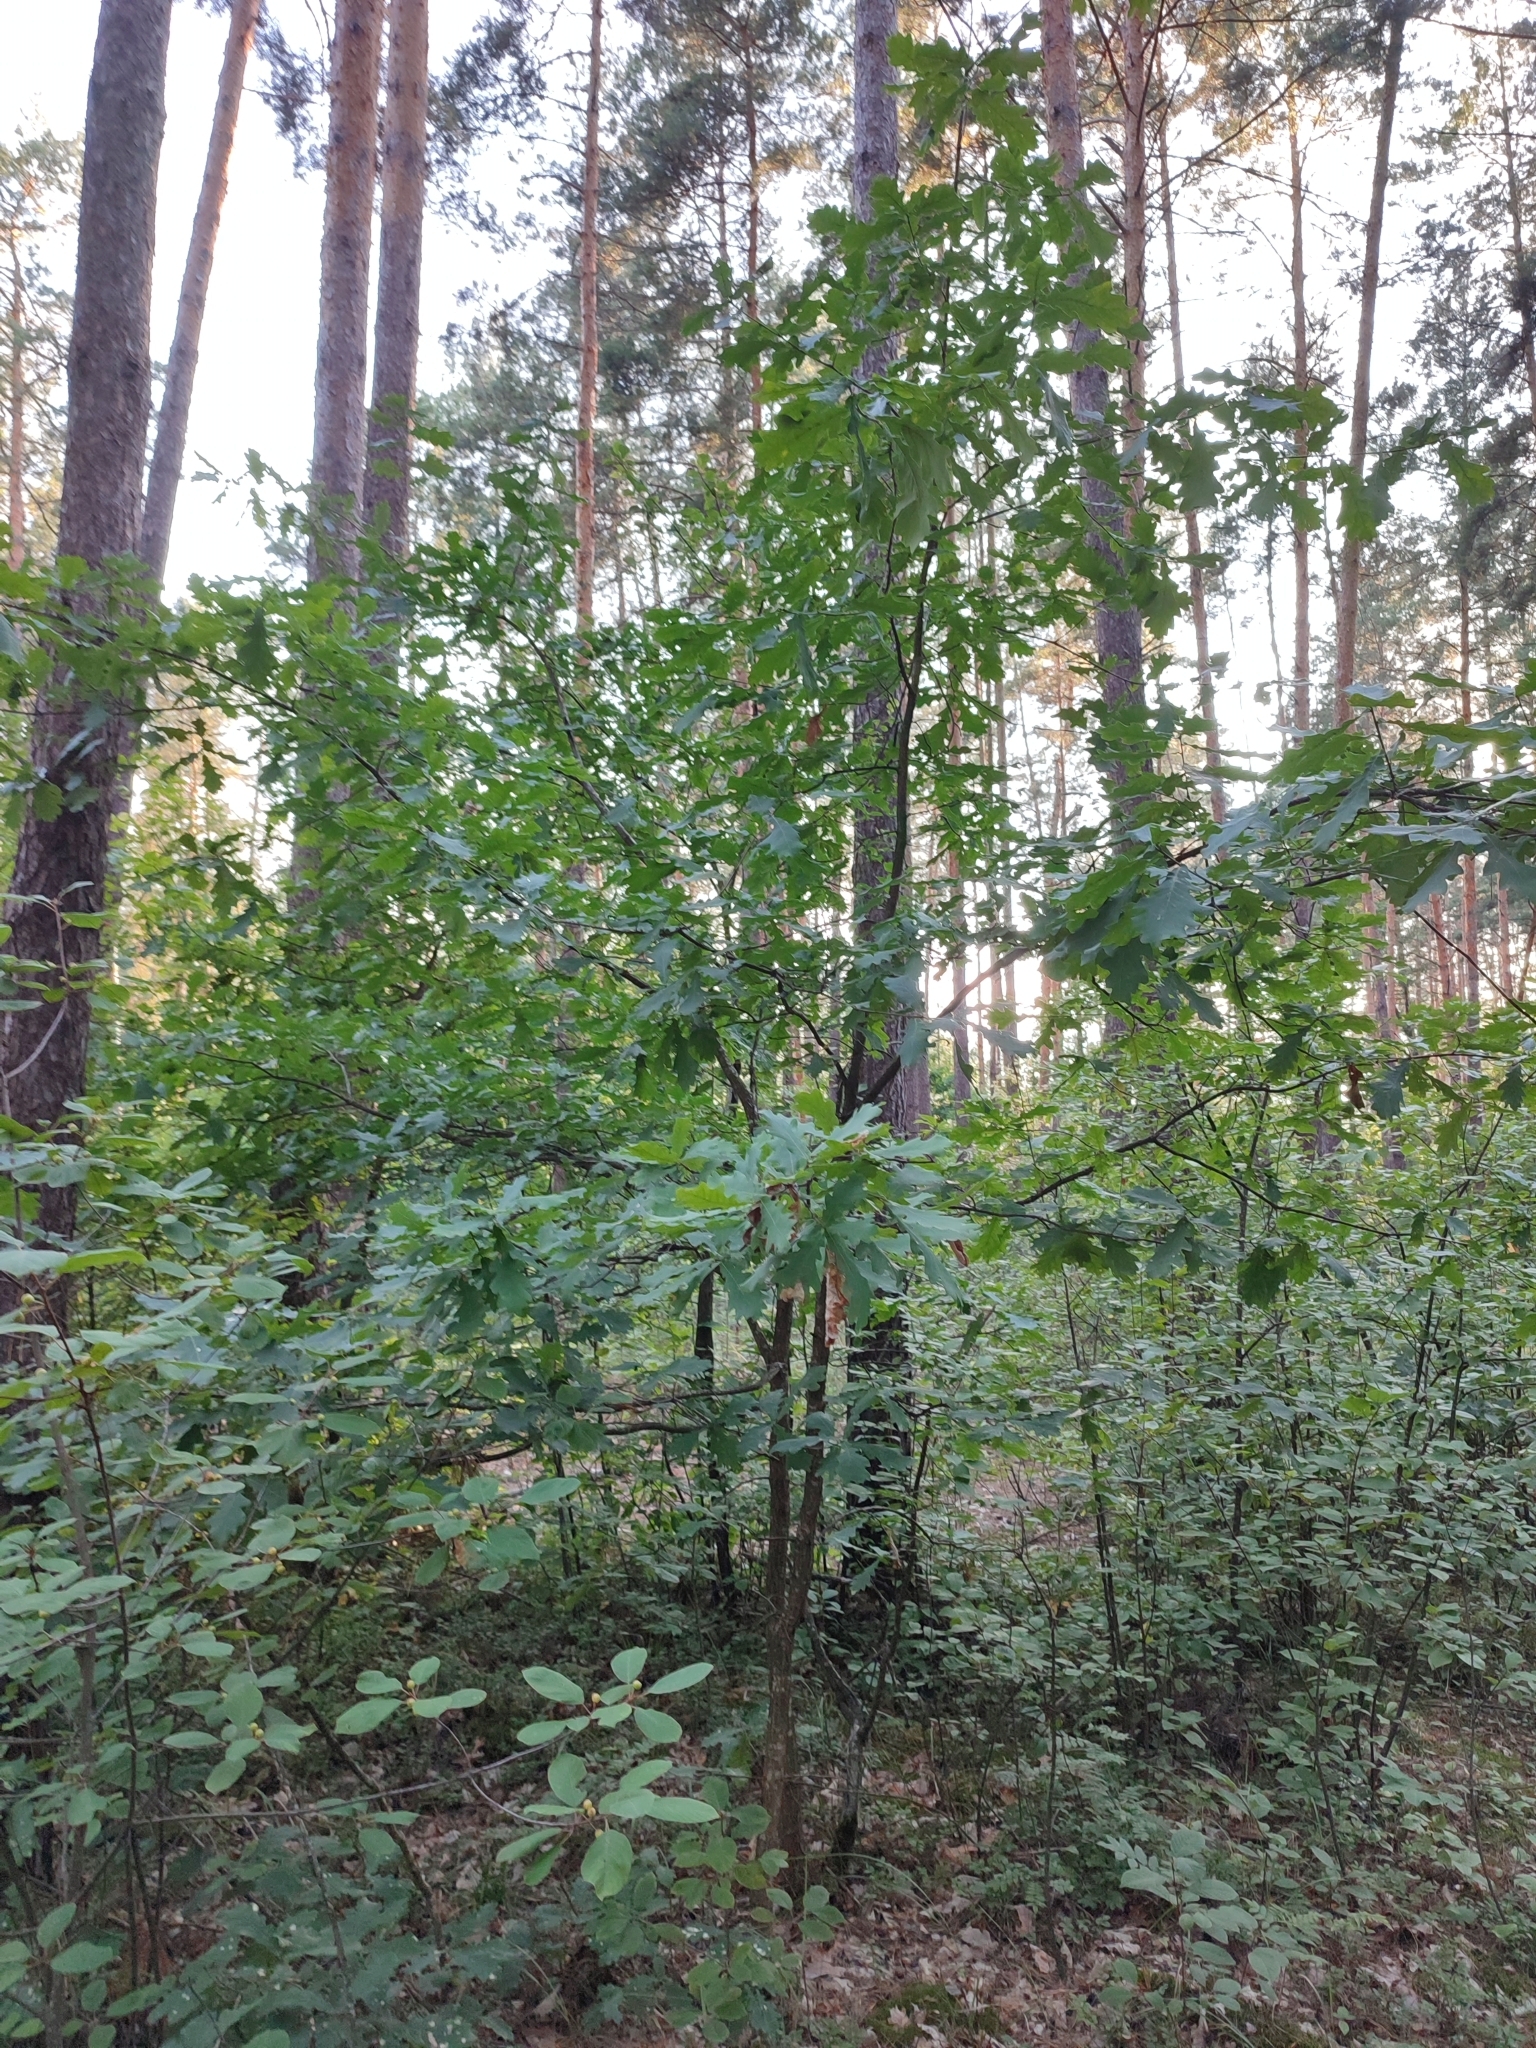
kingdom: Plantae
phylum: Tracheophyta
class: Magnoliopsida
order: Fagales
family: Fagaceae
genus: Quercus
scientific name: Quercus robur
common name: Pedunculate oak
